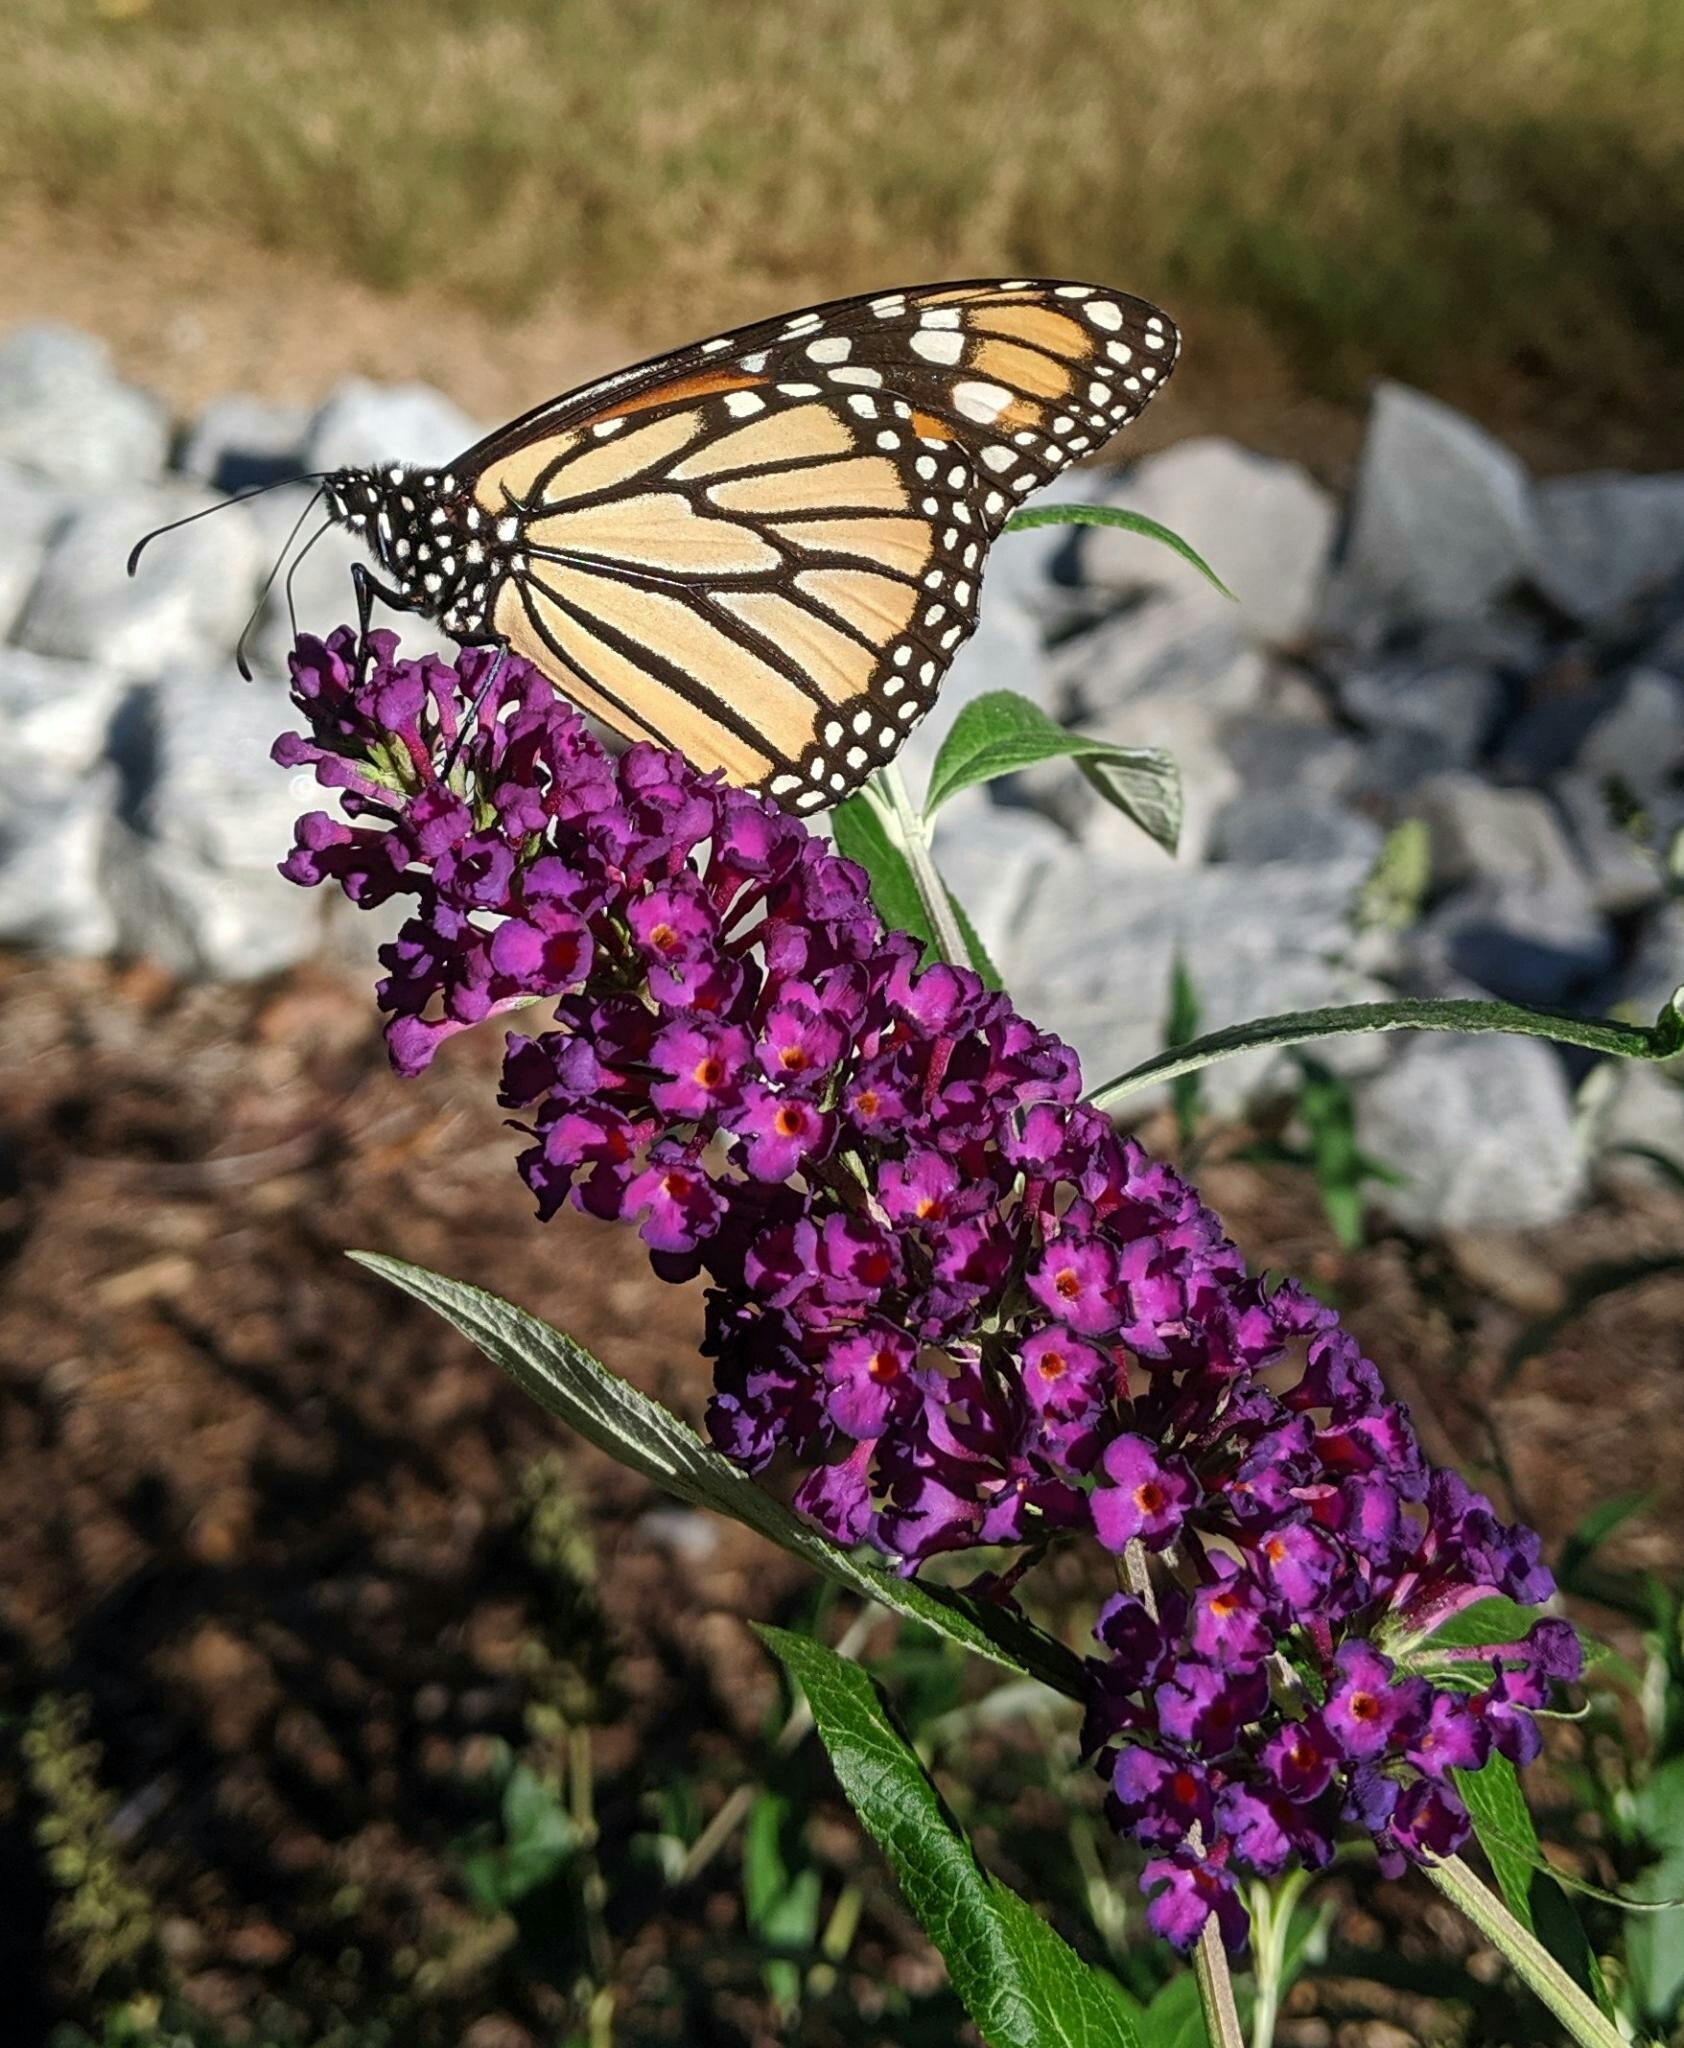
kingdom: Animalia
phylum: Arthropoda
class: Insecta
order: Lepidoptera
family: Nymphalidae
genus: Danaus
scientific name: Danaus plexippus
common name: Monarch
